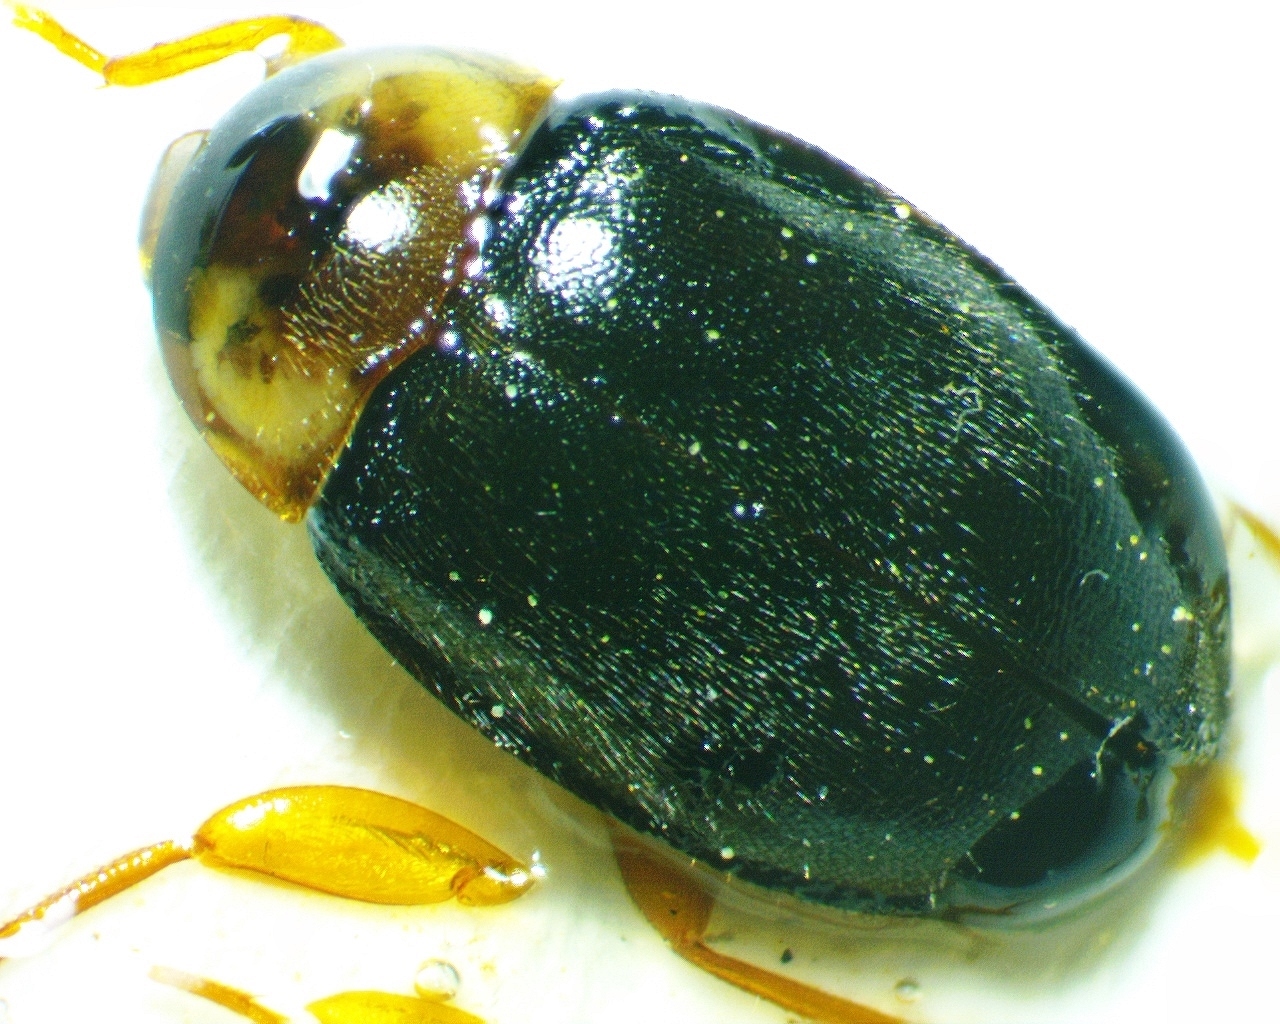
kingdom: Animalia
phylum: Arthropoda
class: Insecta
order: Coleoptera
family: Scirtidae
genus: Sacodes
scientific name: Sacodes pulchella
